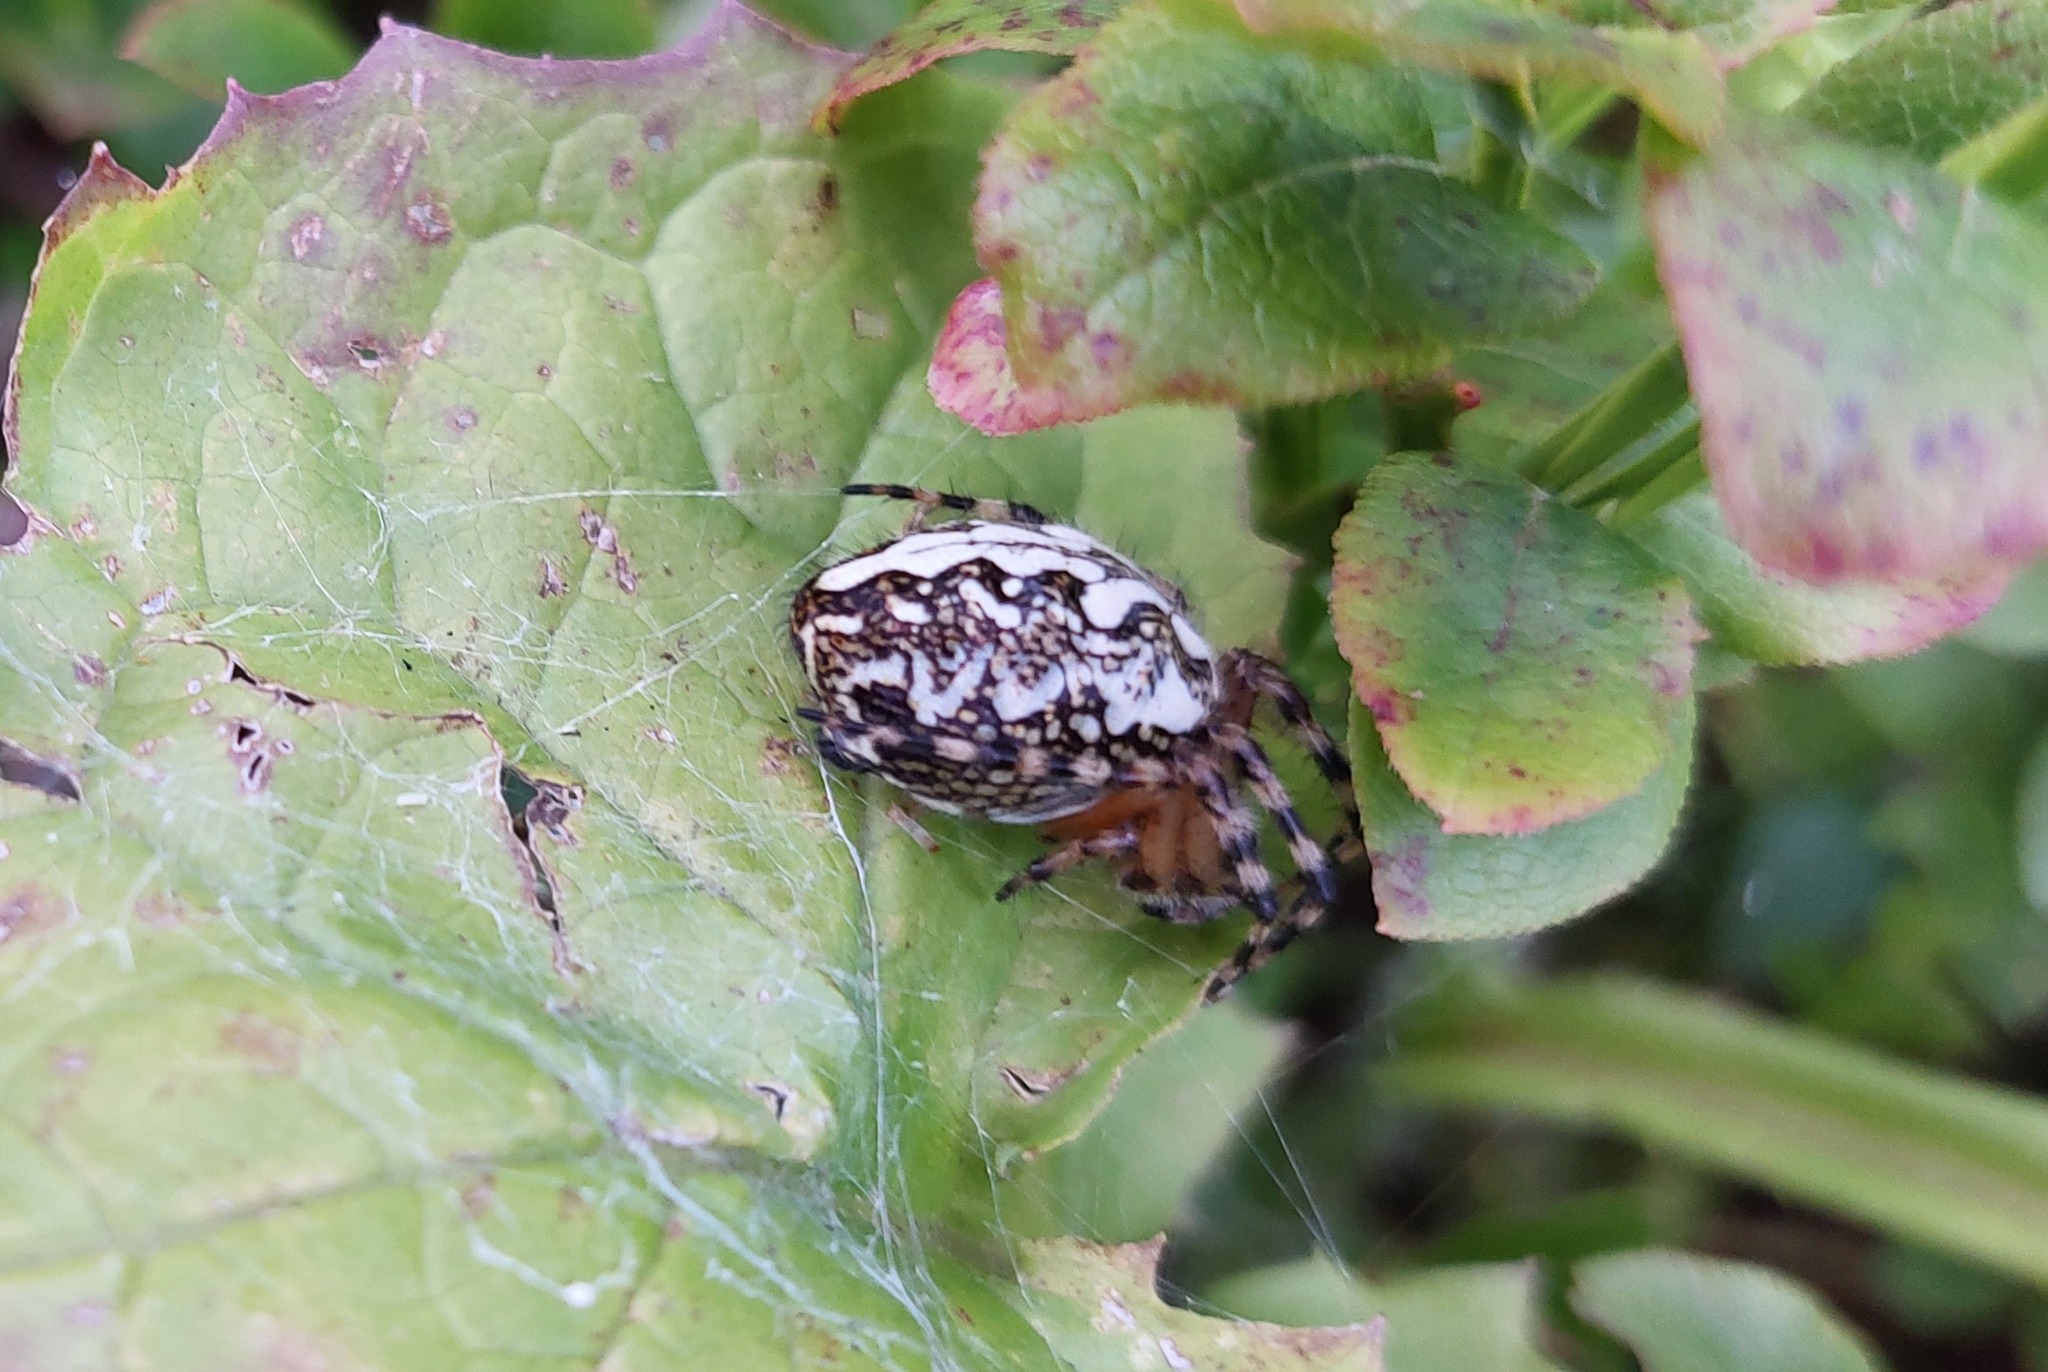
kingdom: Animalia
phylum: Arthropoda
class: Arachnida
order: Araneae
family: Araneidae
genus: Aculepeira
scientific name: Aculepeira ceropegia
